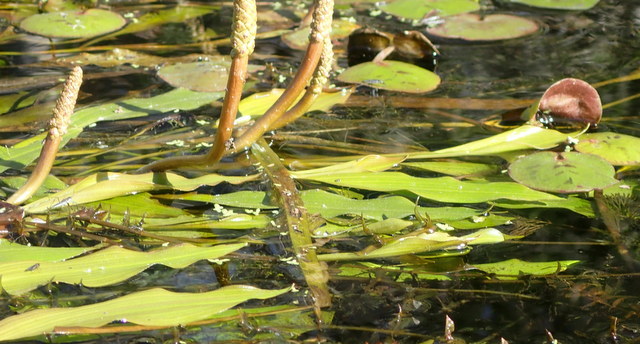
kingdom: Plantae
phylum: Tracheophyta
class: Liliopsida
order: Alismatales
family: Potamogetonaceae
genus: Potamogeton
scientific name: Potamogeton nodosus
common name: Loddon pondweed
